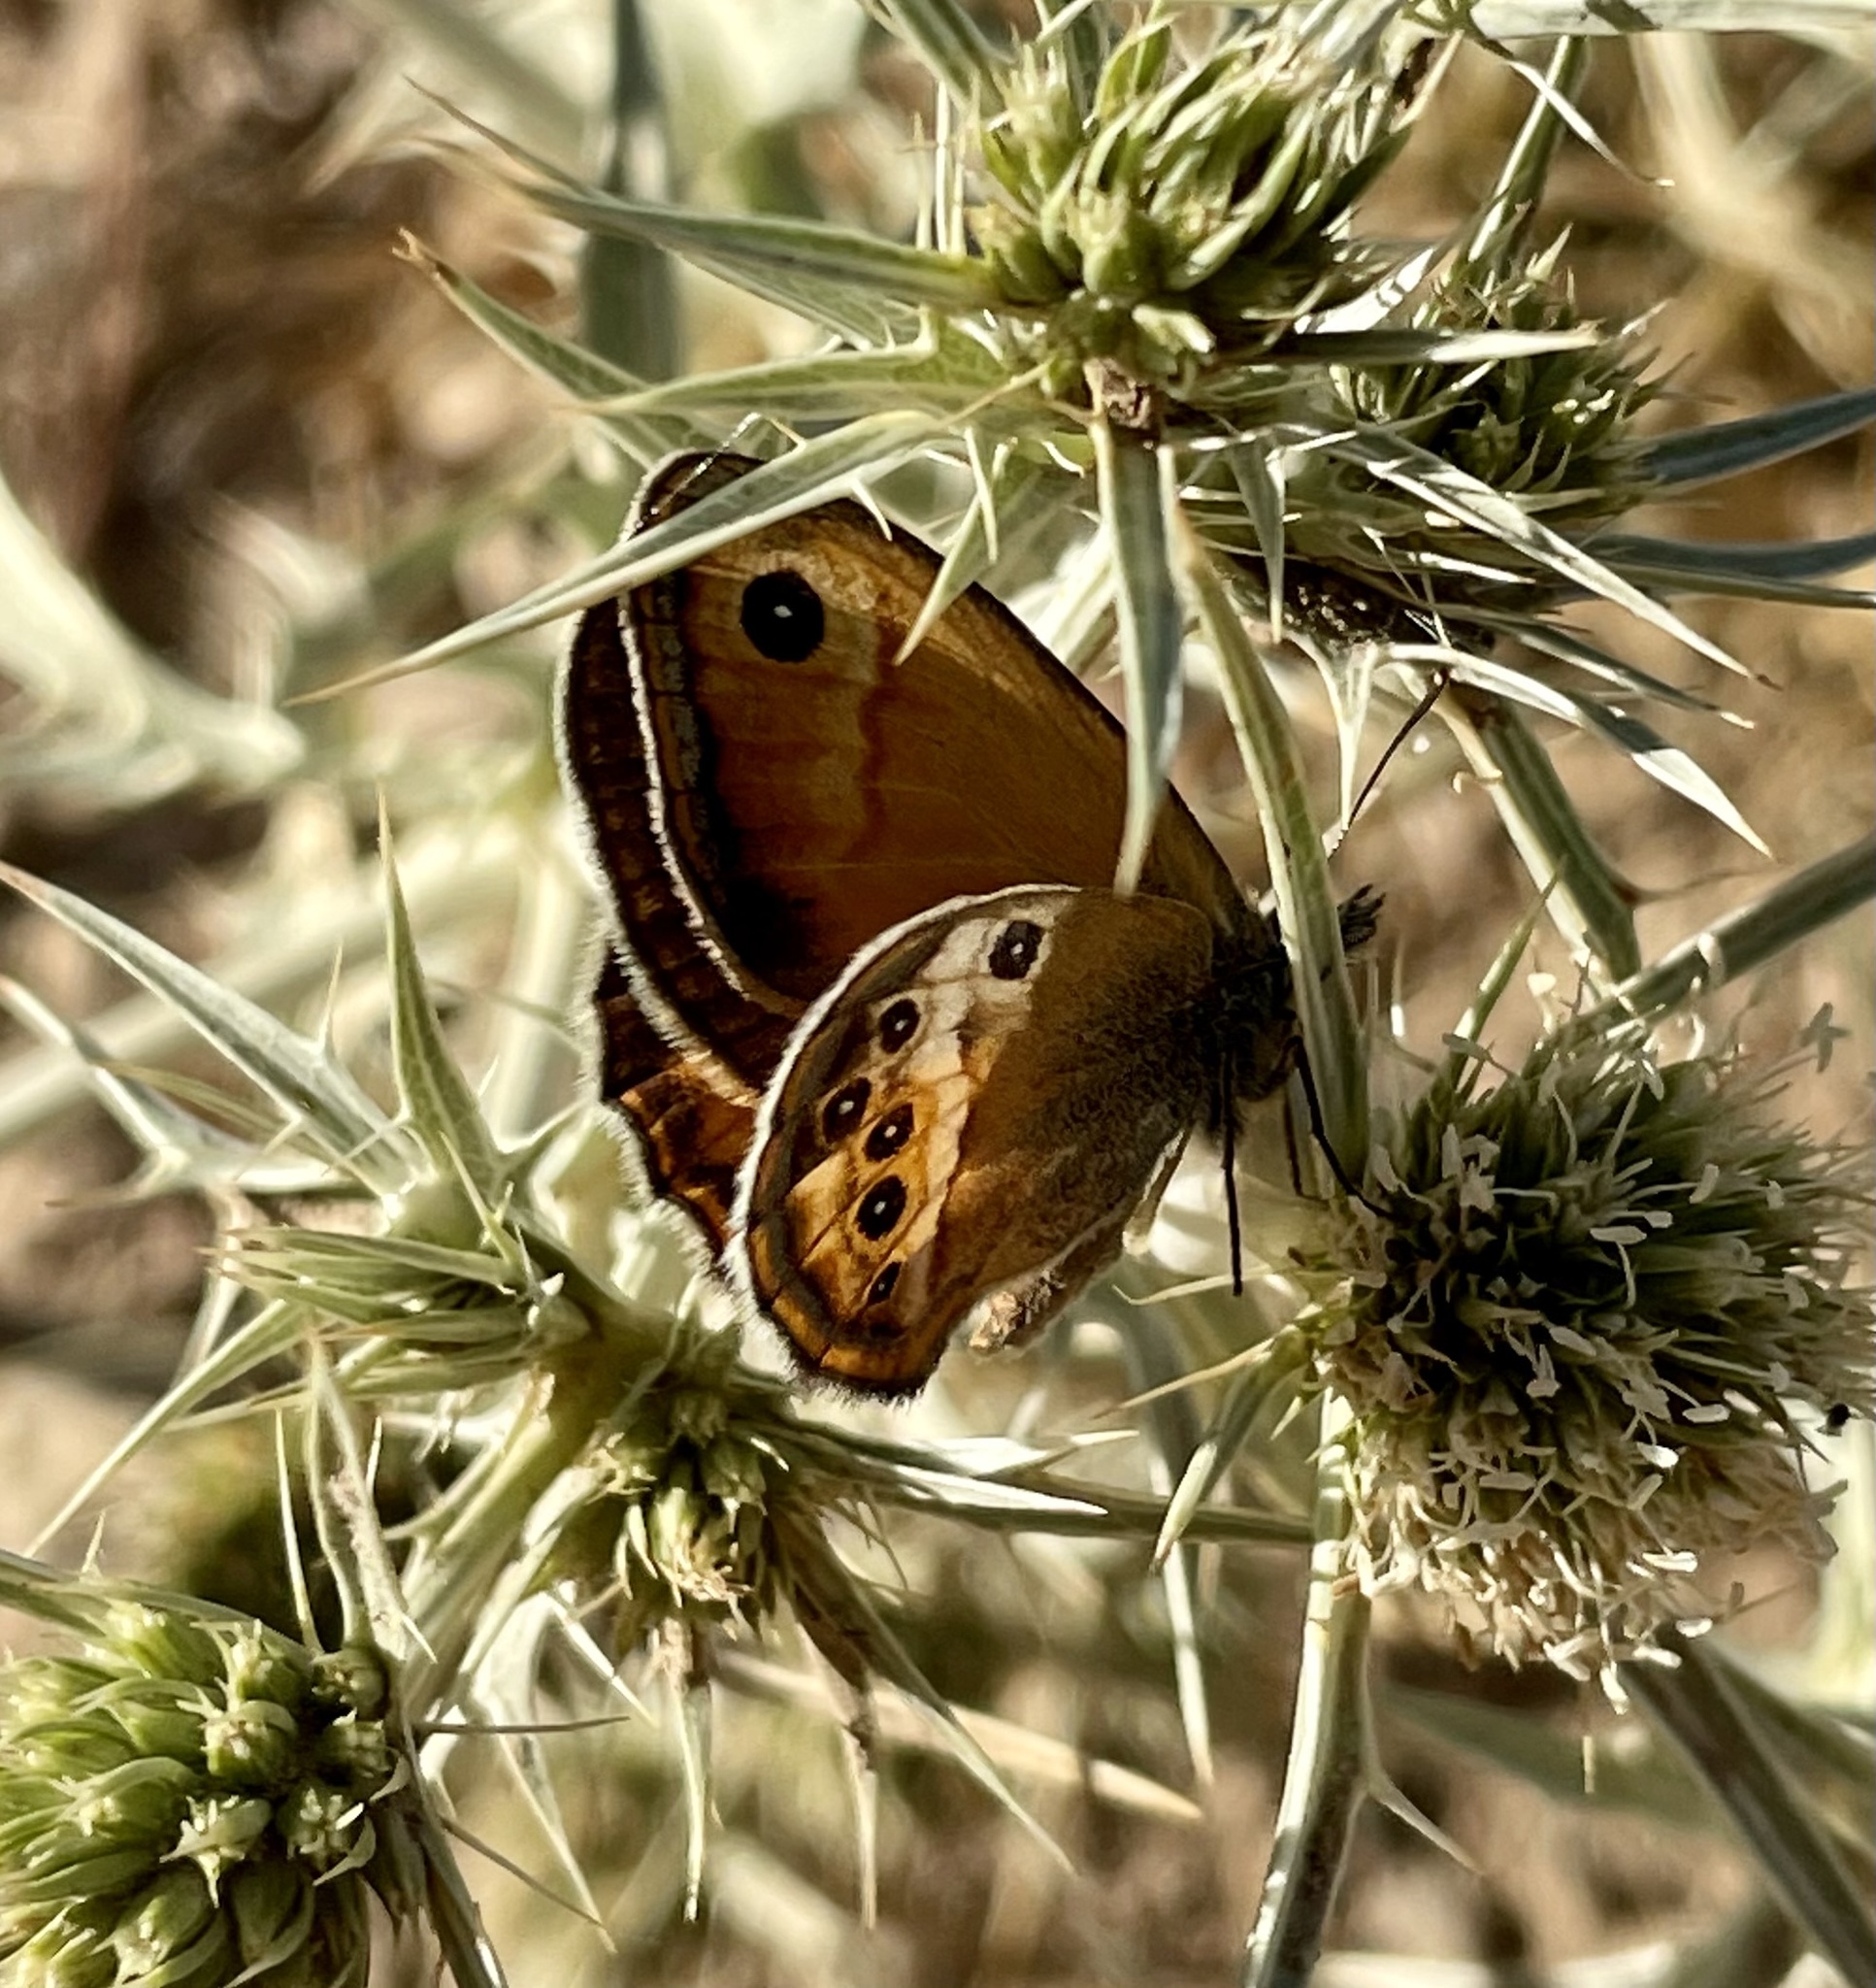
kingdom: Animalia
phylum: Arthropoda
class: Insecta
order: Lepidoptera
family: Nymphalidae
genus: Coenonympha
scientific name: Coenonympha dorus
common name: Dusky heath
